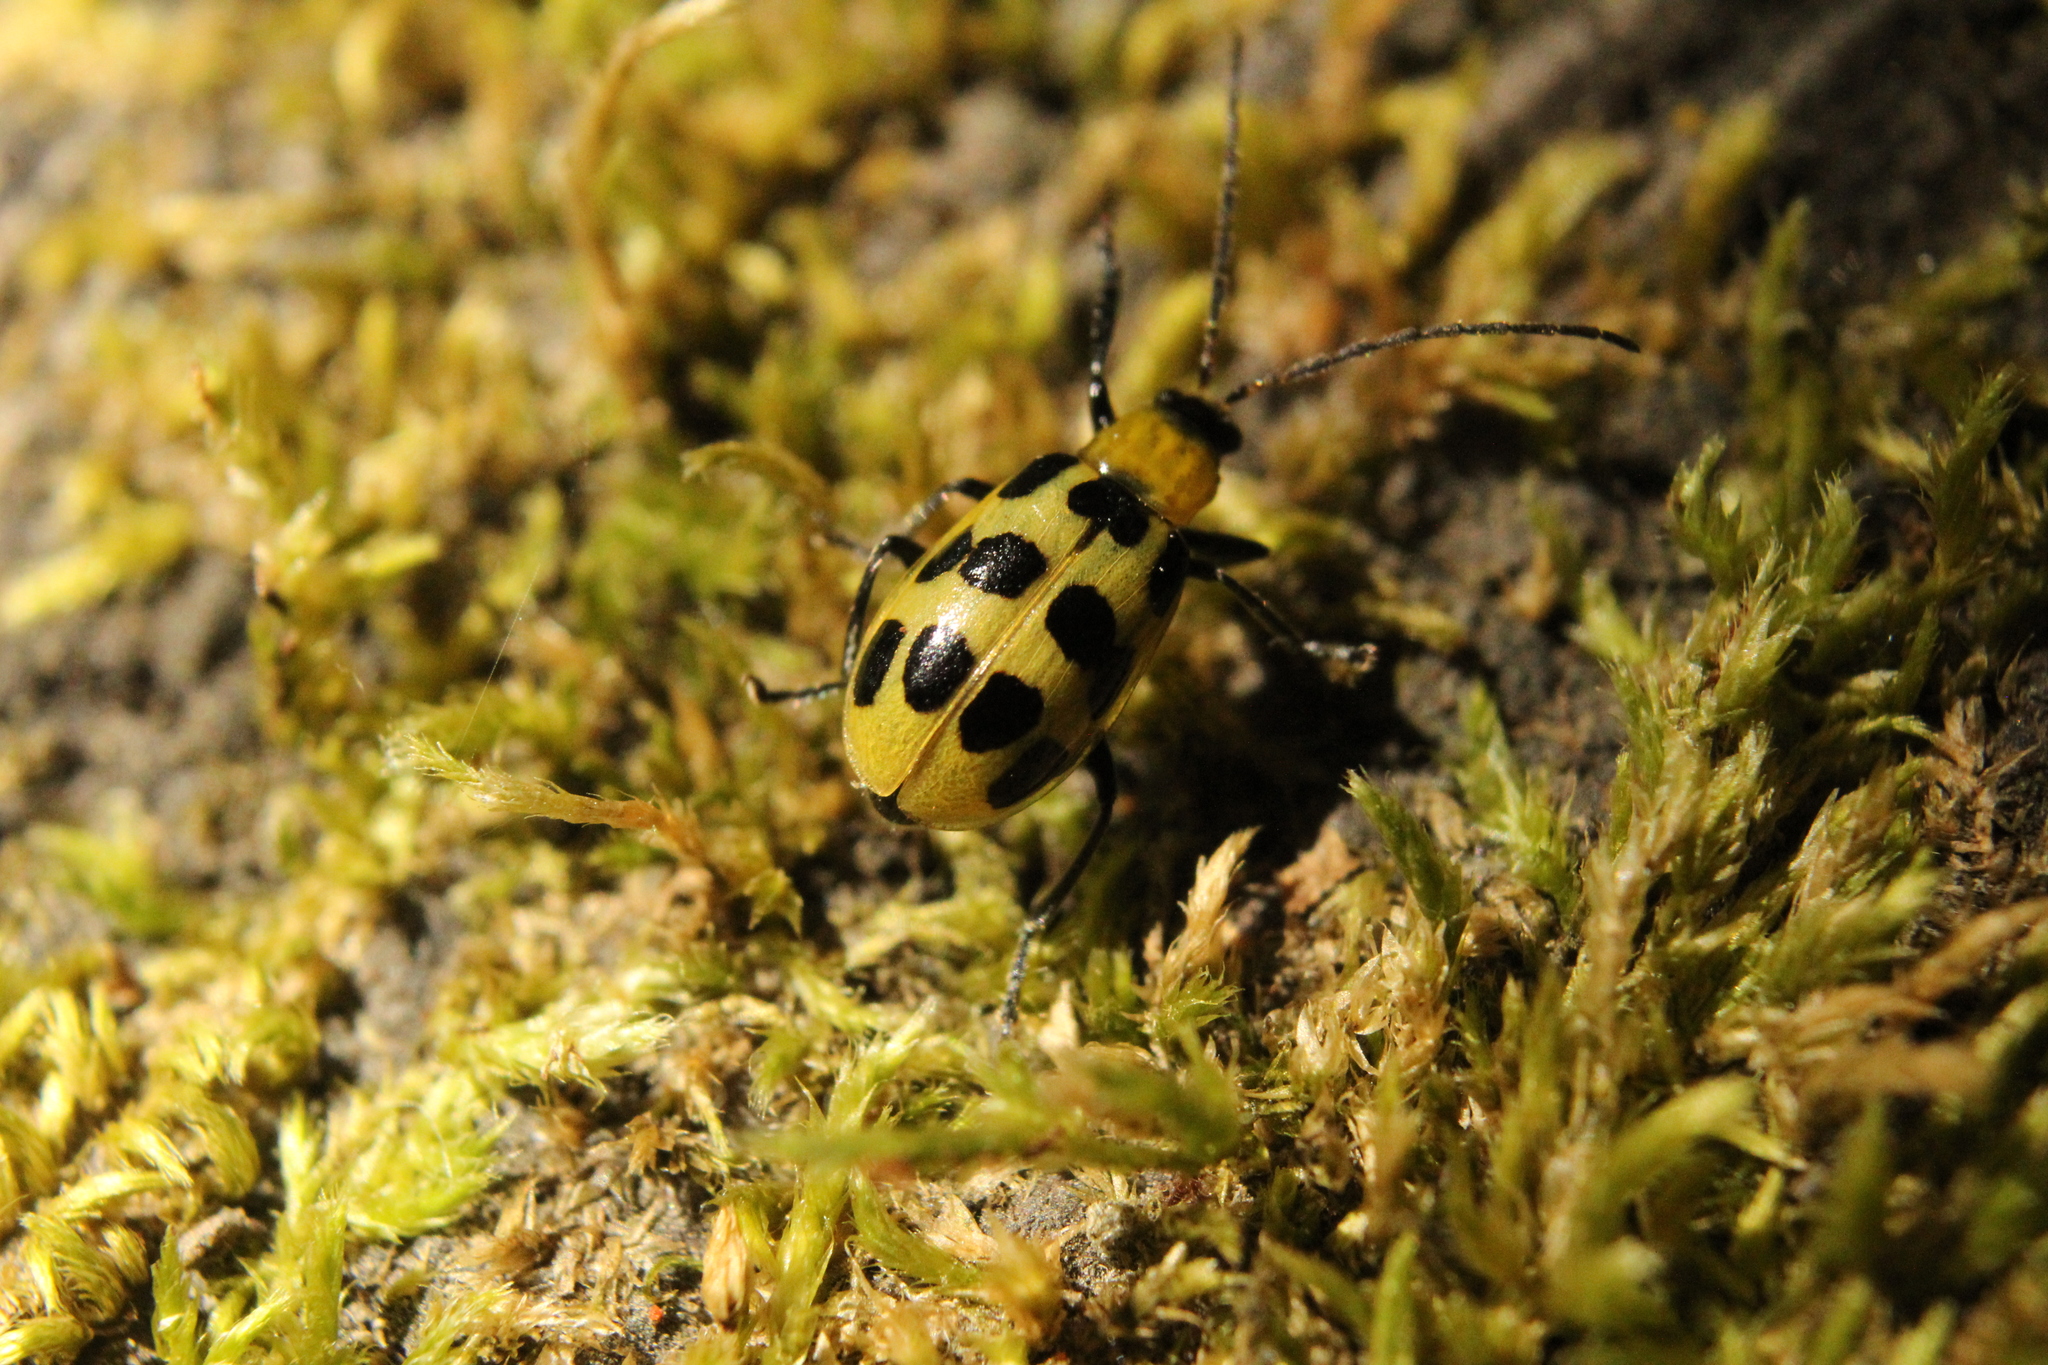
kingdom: Animalia
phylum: Arthropoda
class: Insecta
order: Coleoptera
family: Chrysomelidae
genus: Diabrotica
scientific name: Diabrotica undecimpunctata
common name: Spotted cucumber beetle
